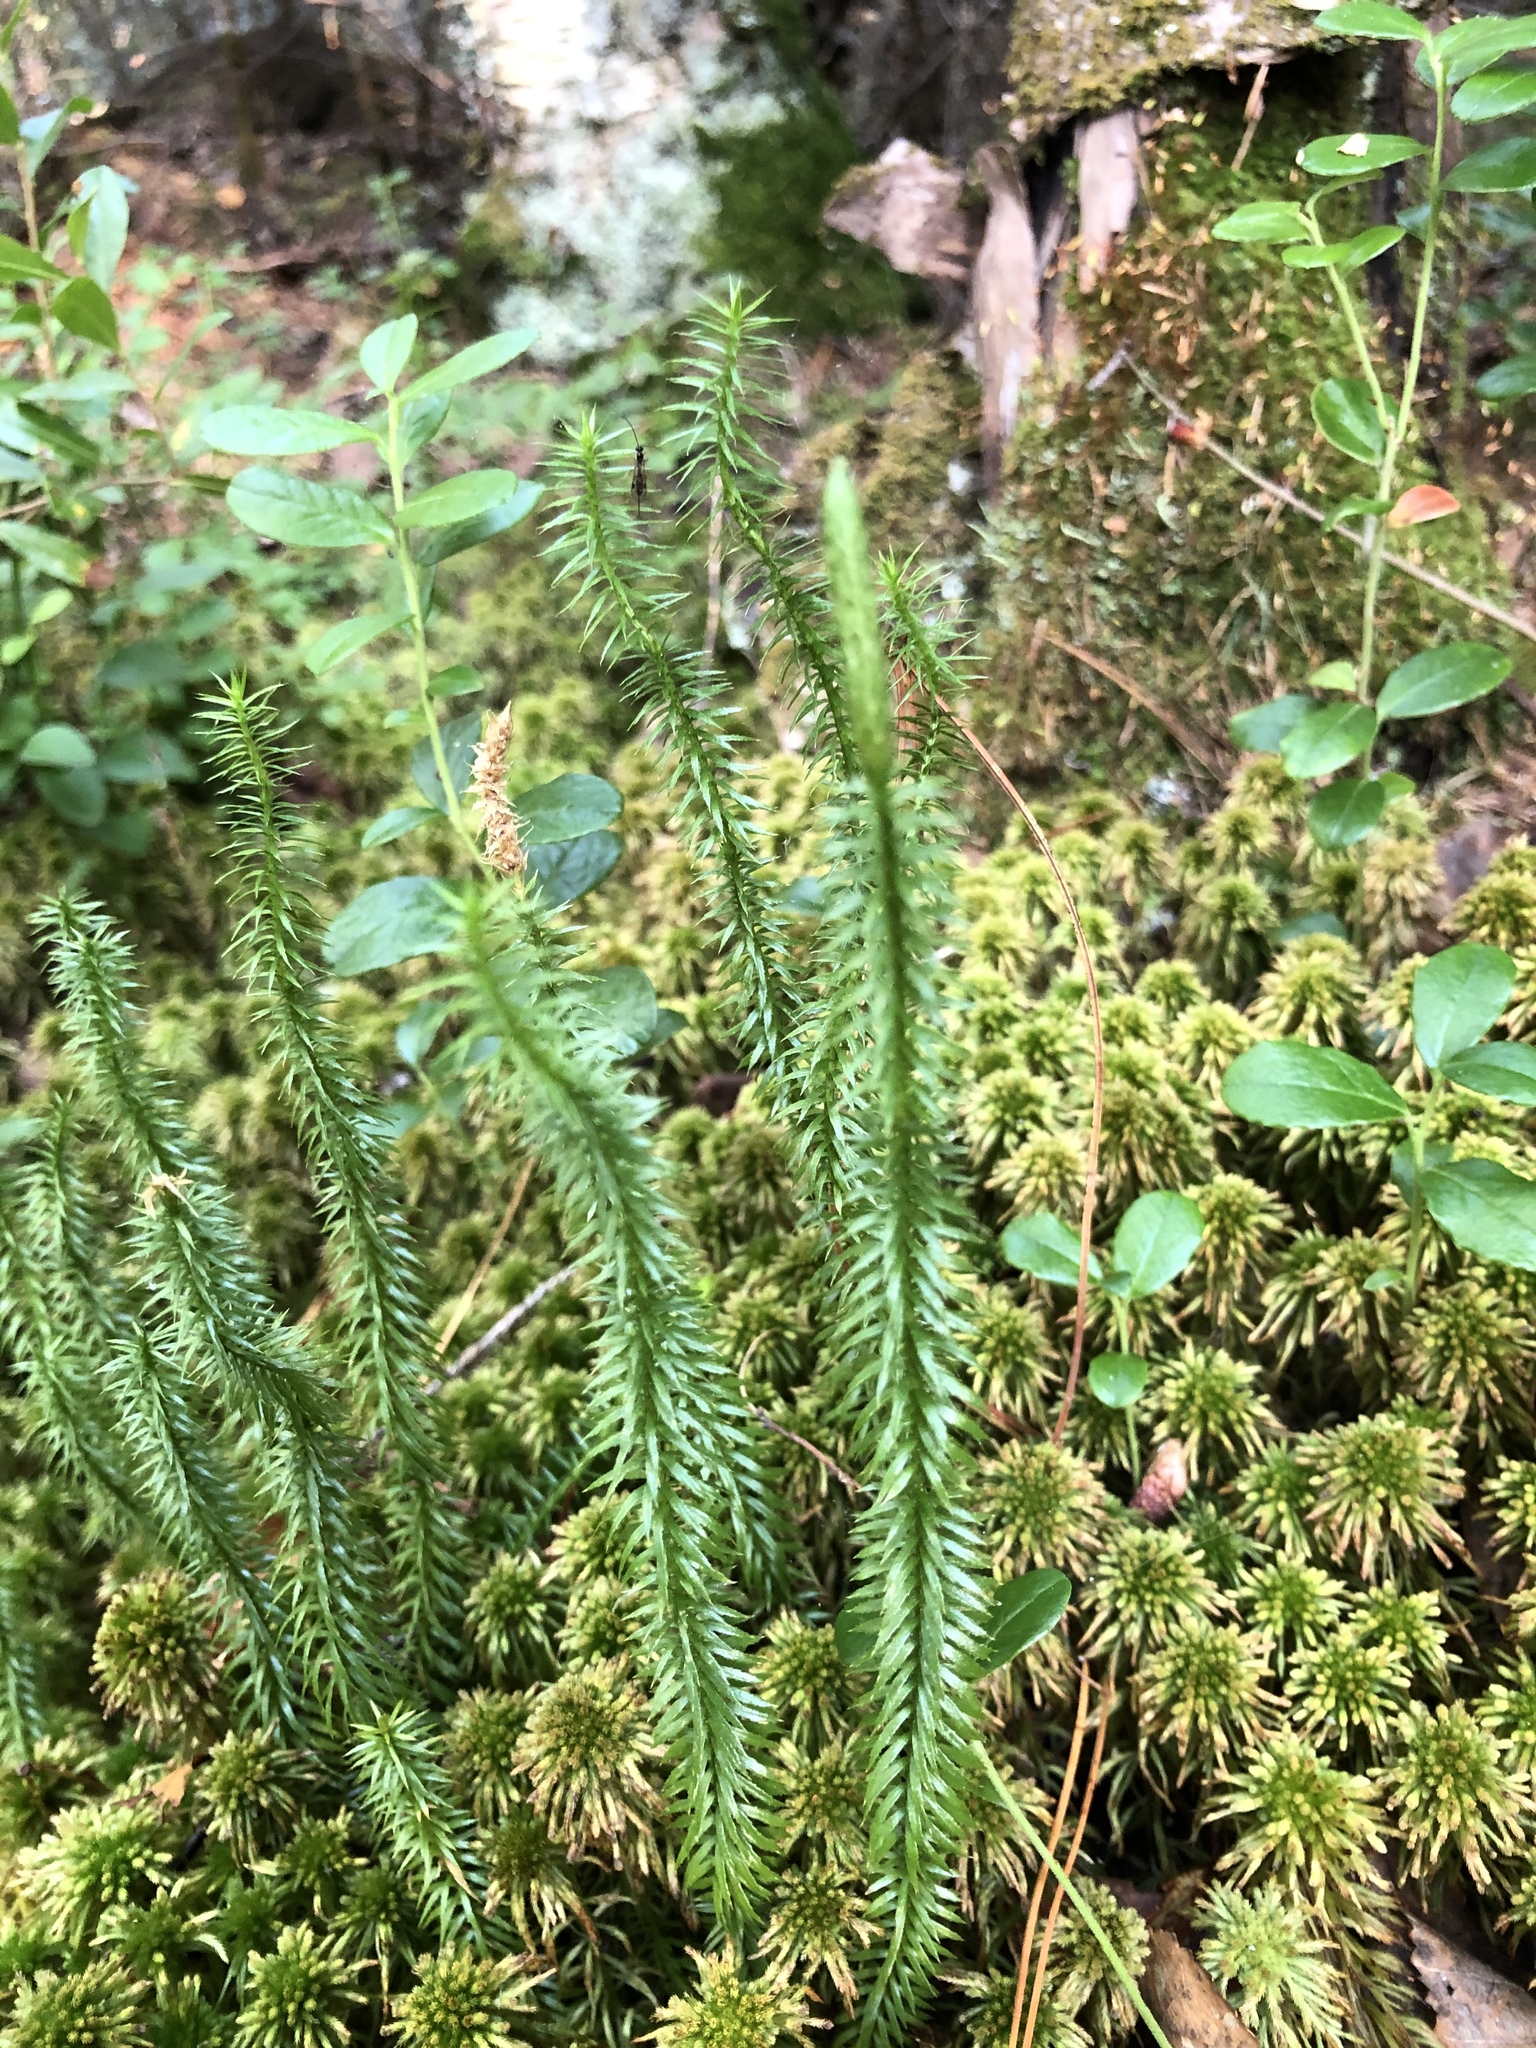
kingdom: Plantae
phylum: Tracheophyta
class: Lycopodiopsida
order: Lycopodiales
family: Lycopodiaceae
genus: Spinulum
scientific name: Spinulum annotinum
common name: Interrupted club-moss
